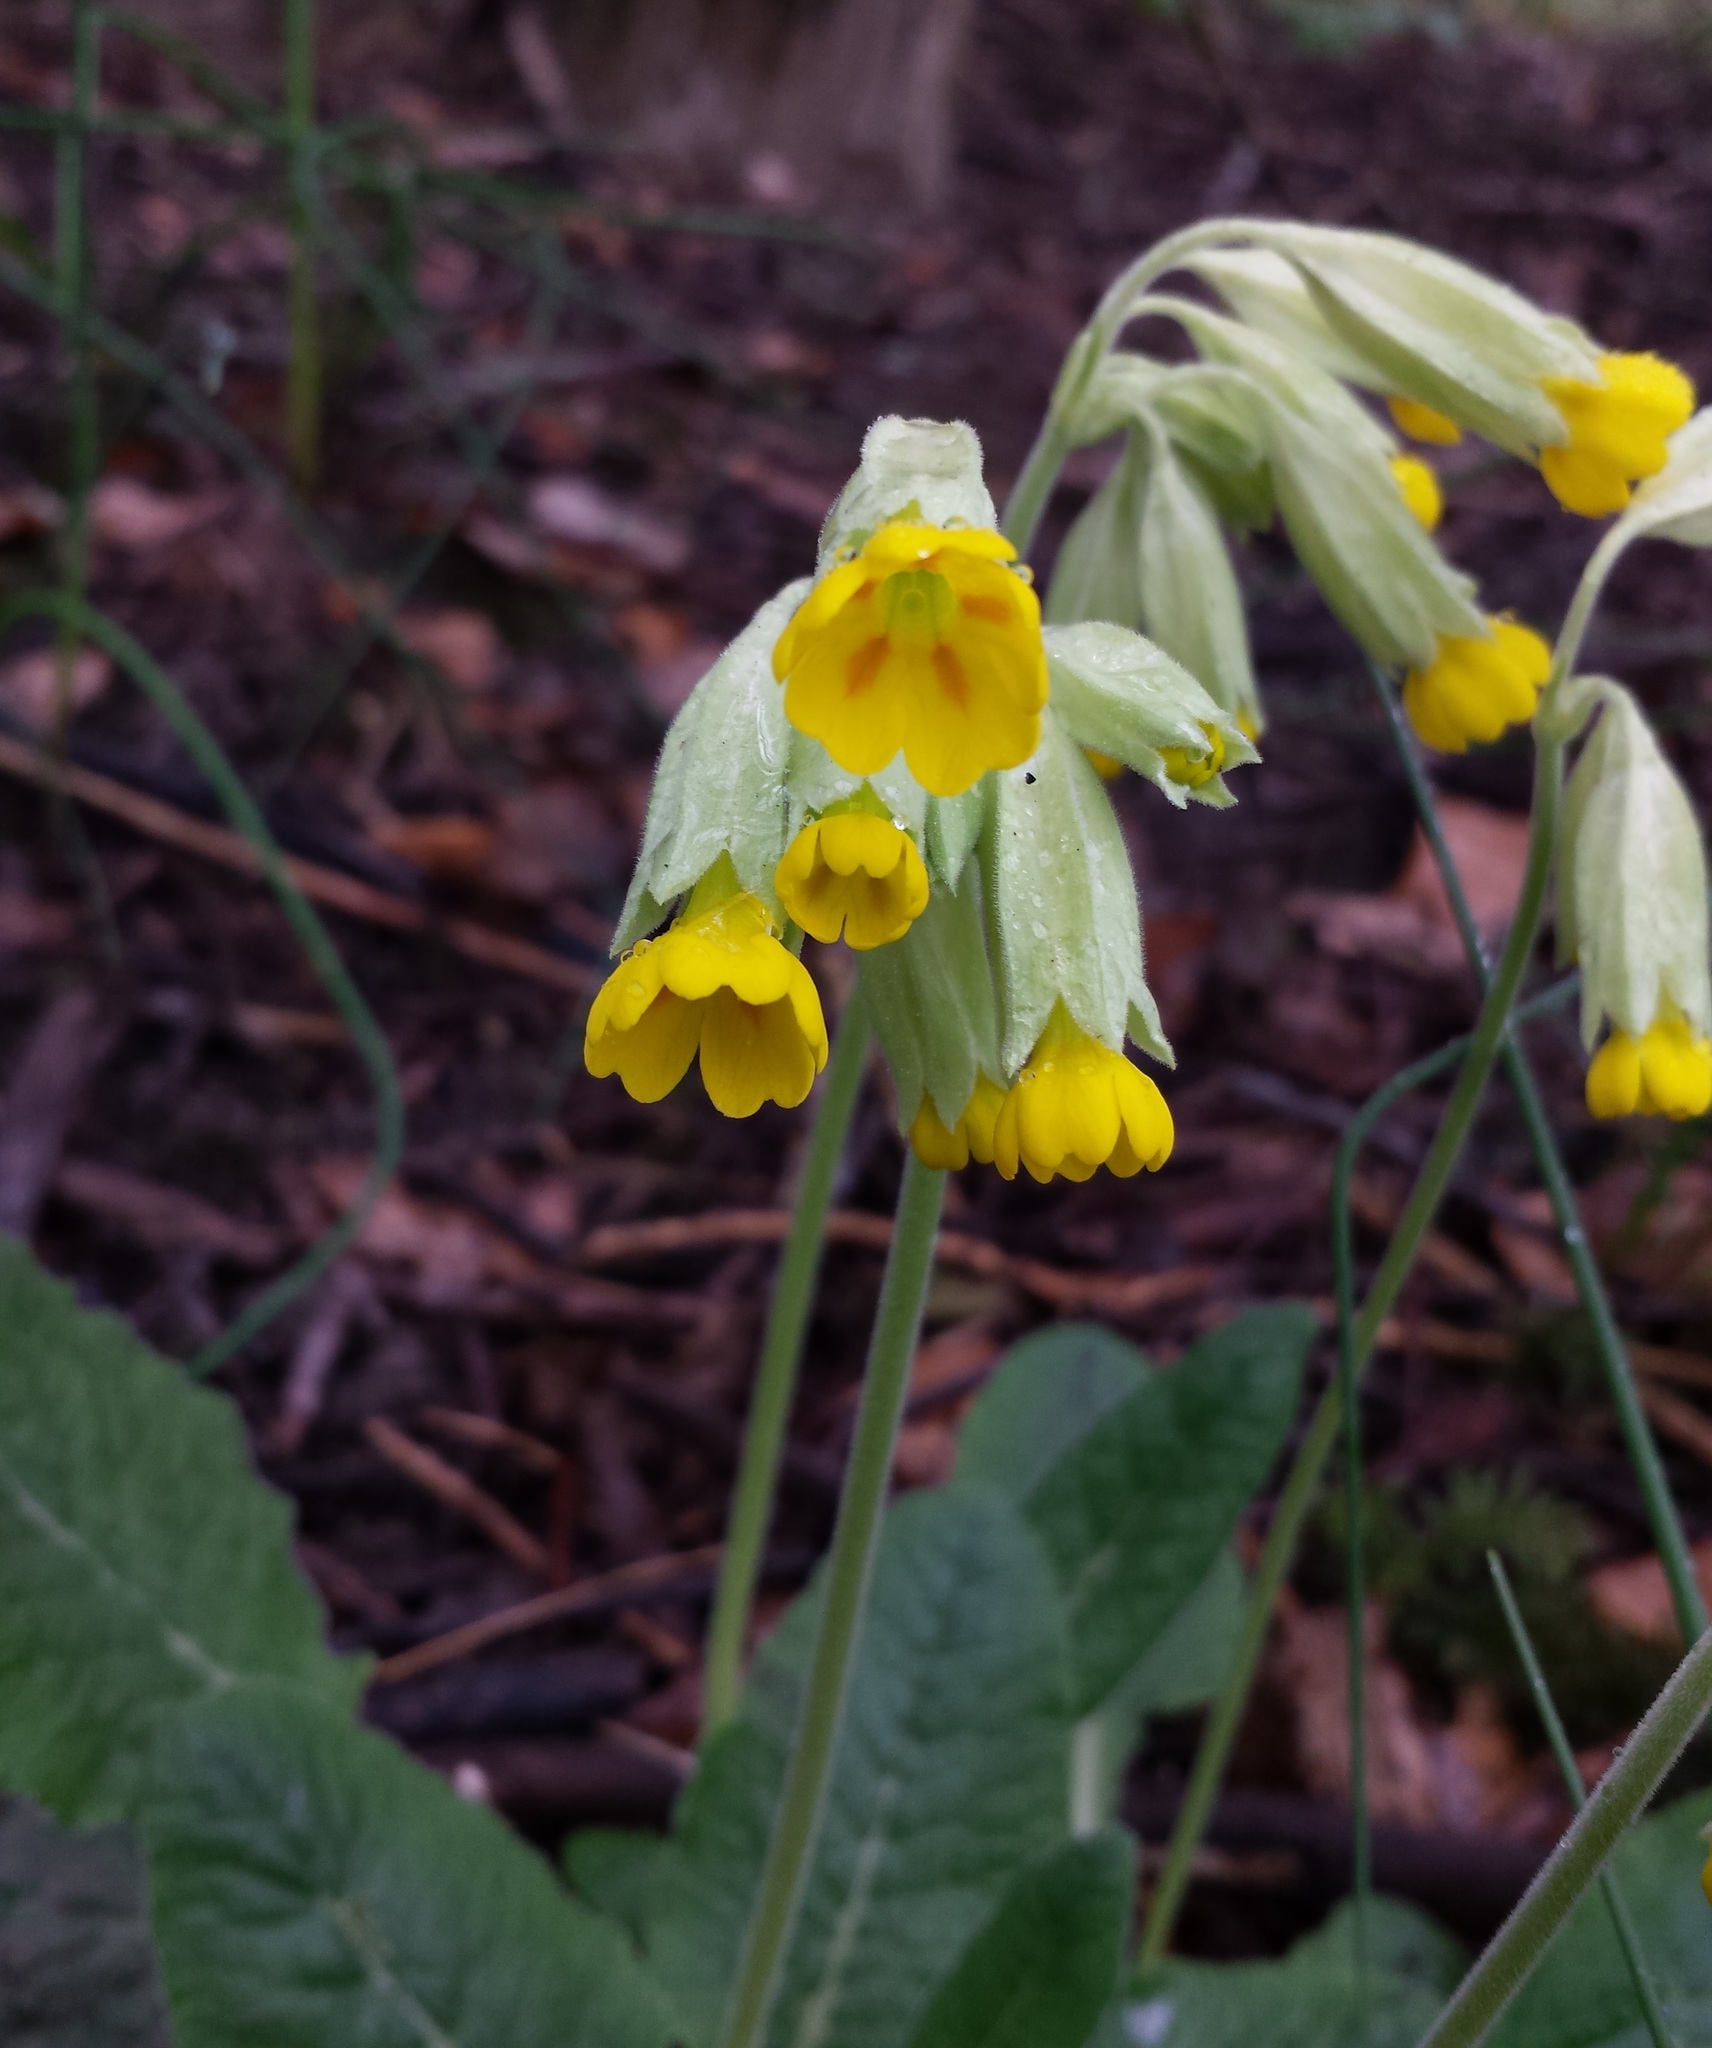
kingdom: Plantae
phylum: Tracheophyta
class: Magnoliopsida
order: Ericales
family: Primulaceae
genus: Primula
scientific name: Primula veris
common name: Cowslip
